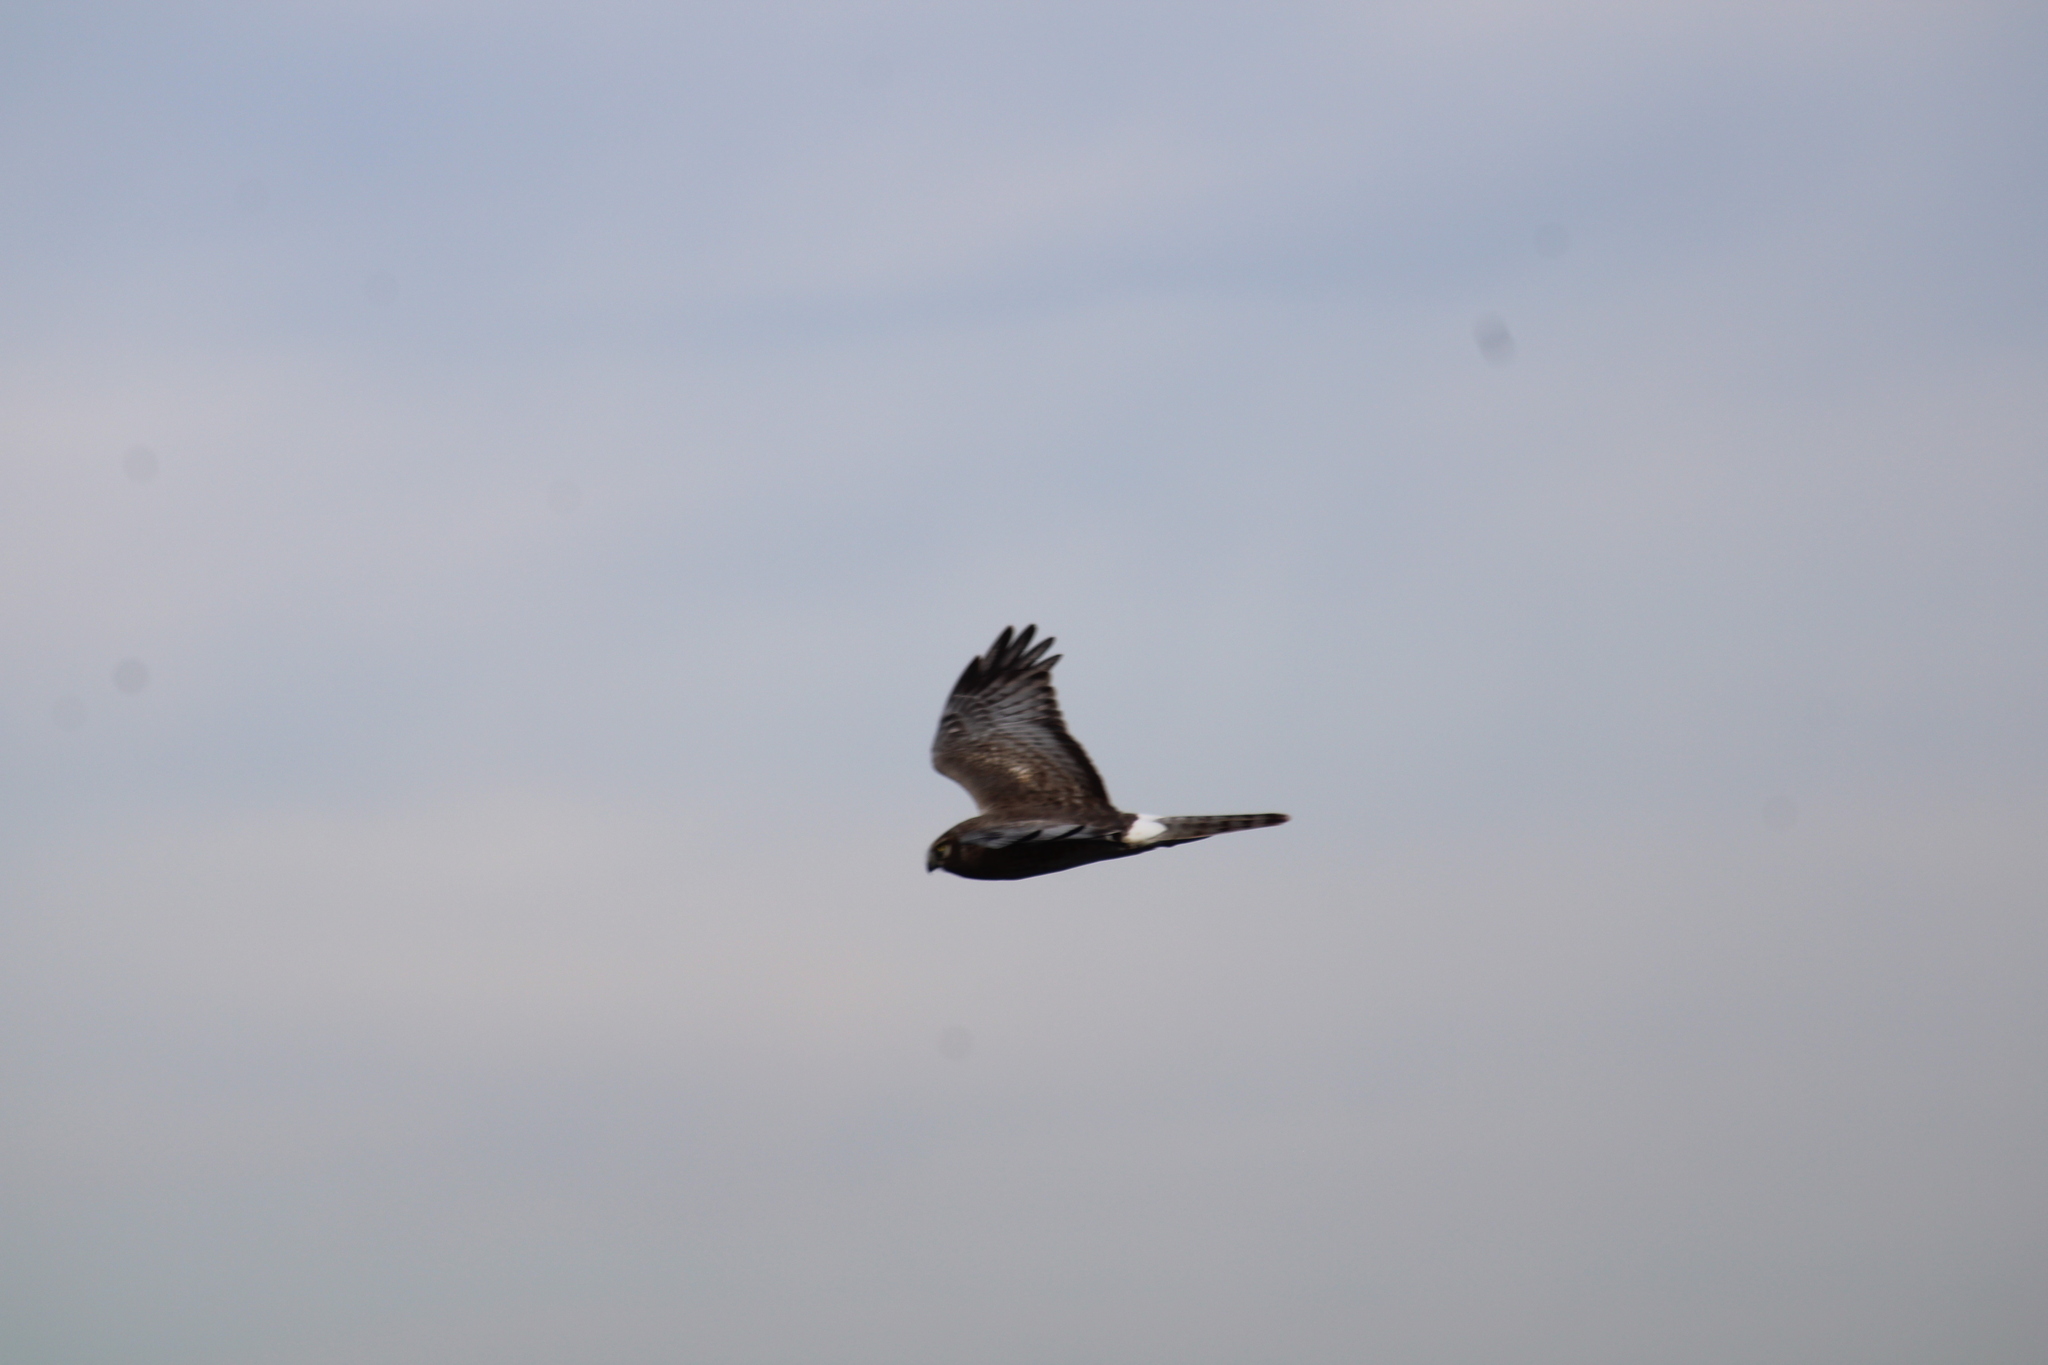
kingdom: Animalia
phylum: Chordata
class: Aves
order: Accipitriformes
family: Accipitridae
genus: Circus
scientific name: Circus cyaneus
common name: Hen harrier
